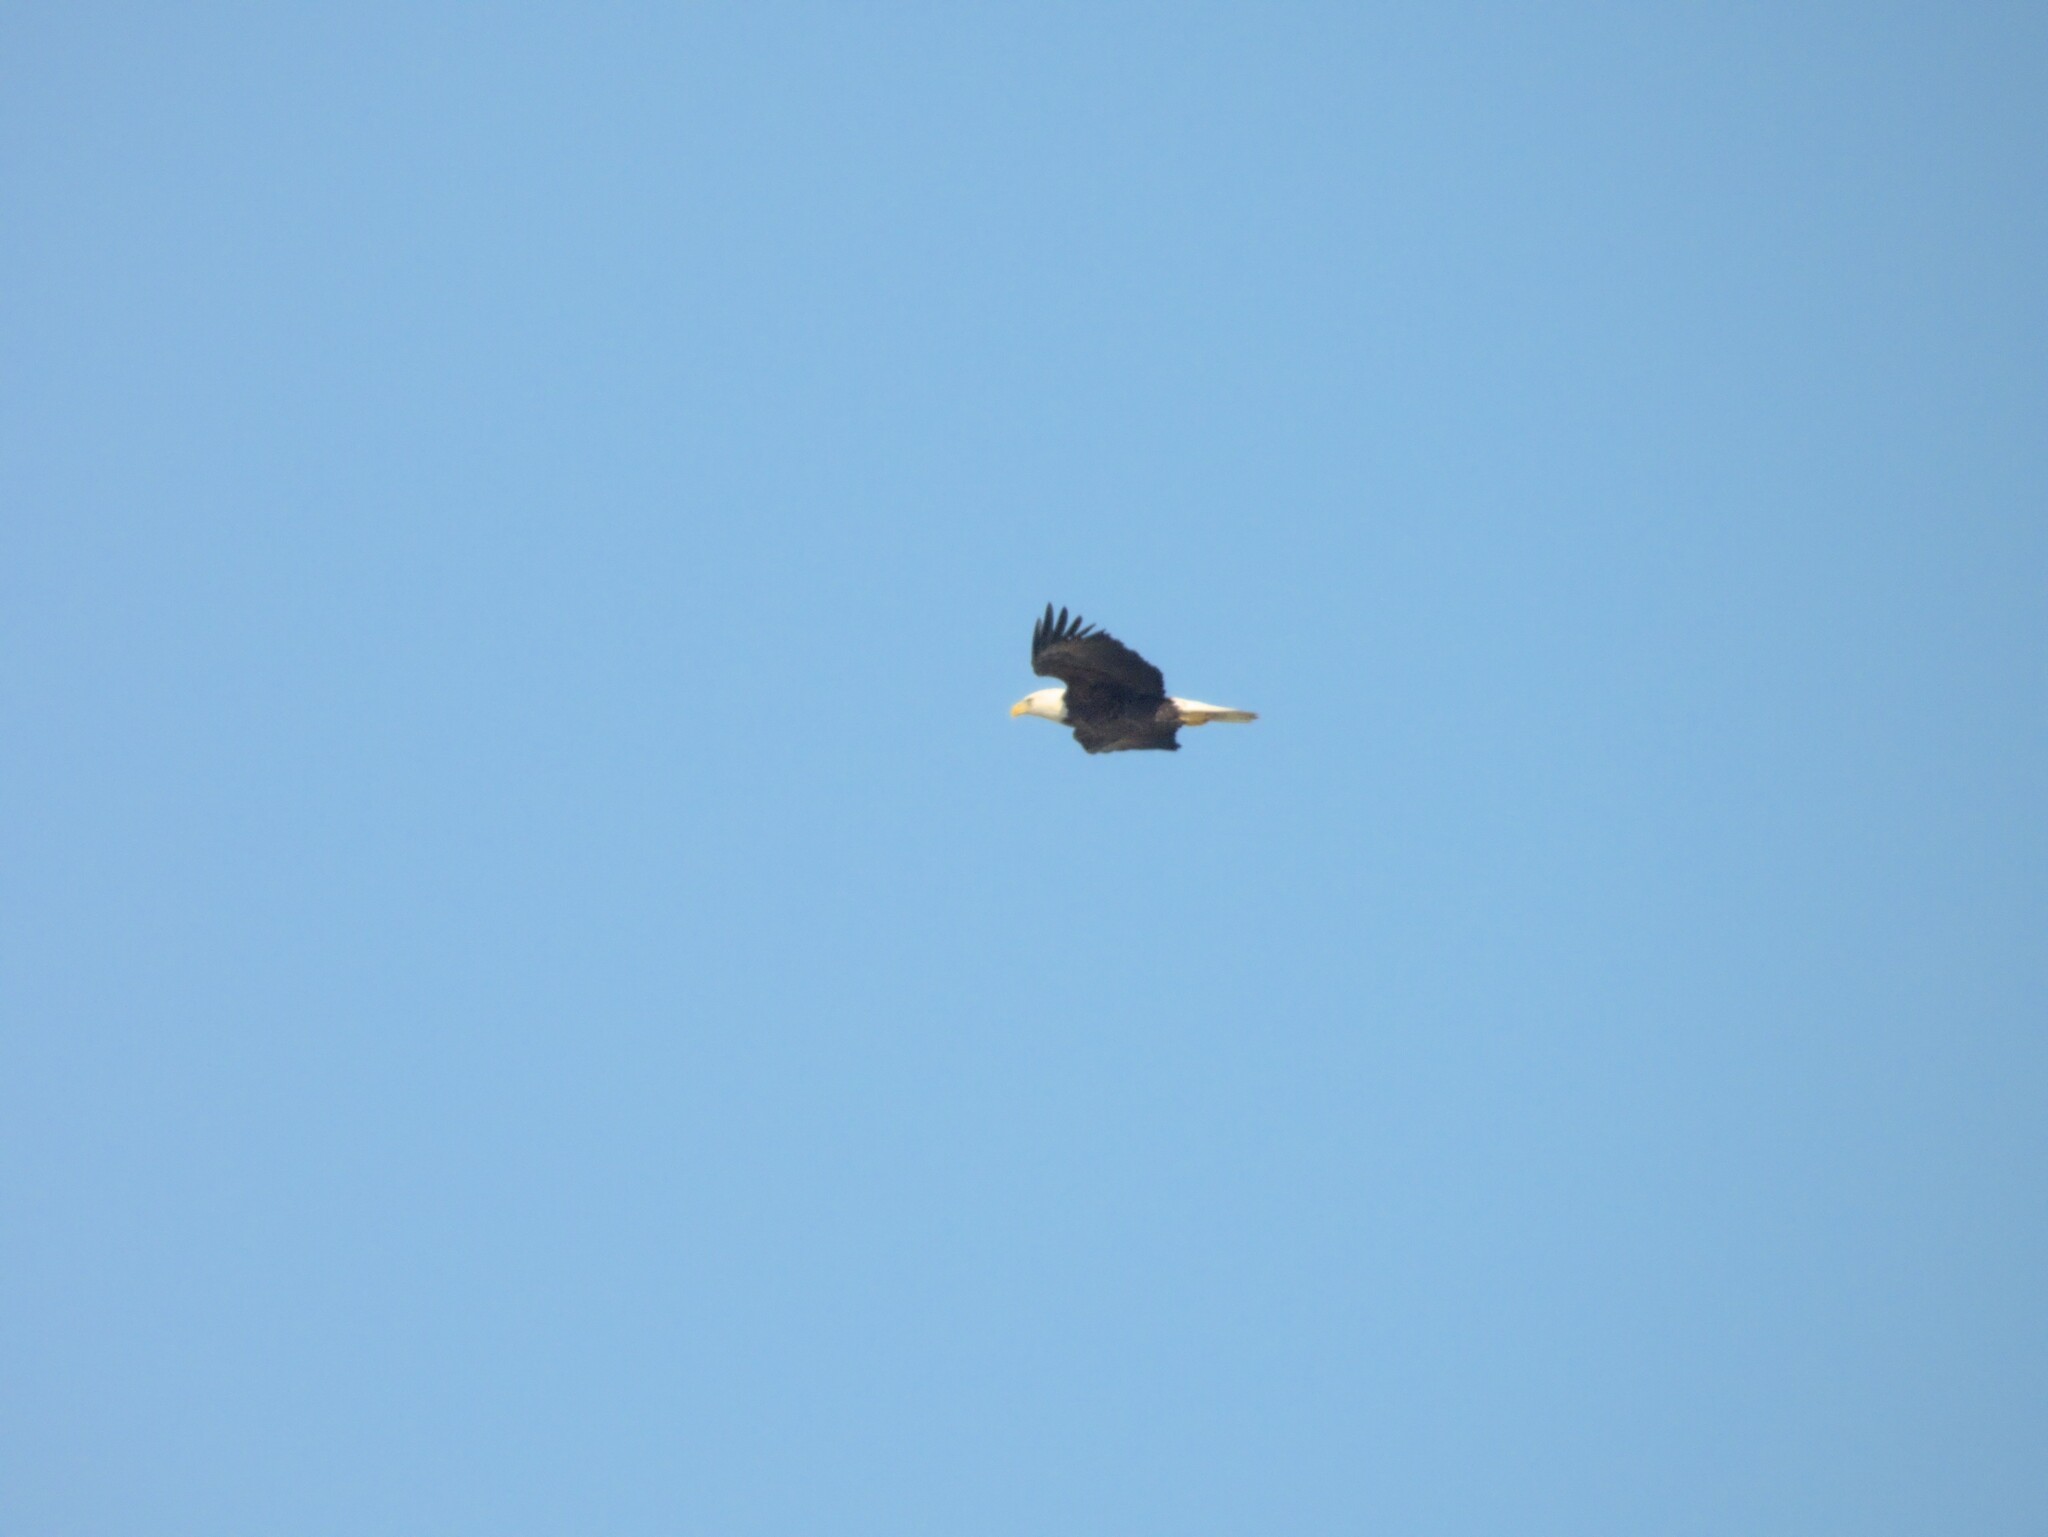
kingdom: Animalia
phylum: Chordata
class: Aves
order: Accipitriformes
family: Accipitridae
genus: Haliaeetus
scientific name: Haliaeetus leucocephalus
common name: Bald eagle
